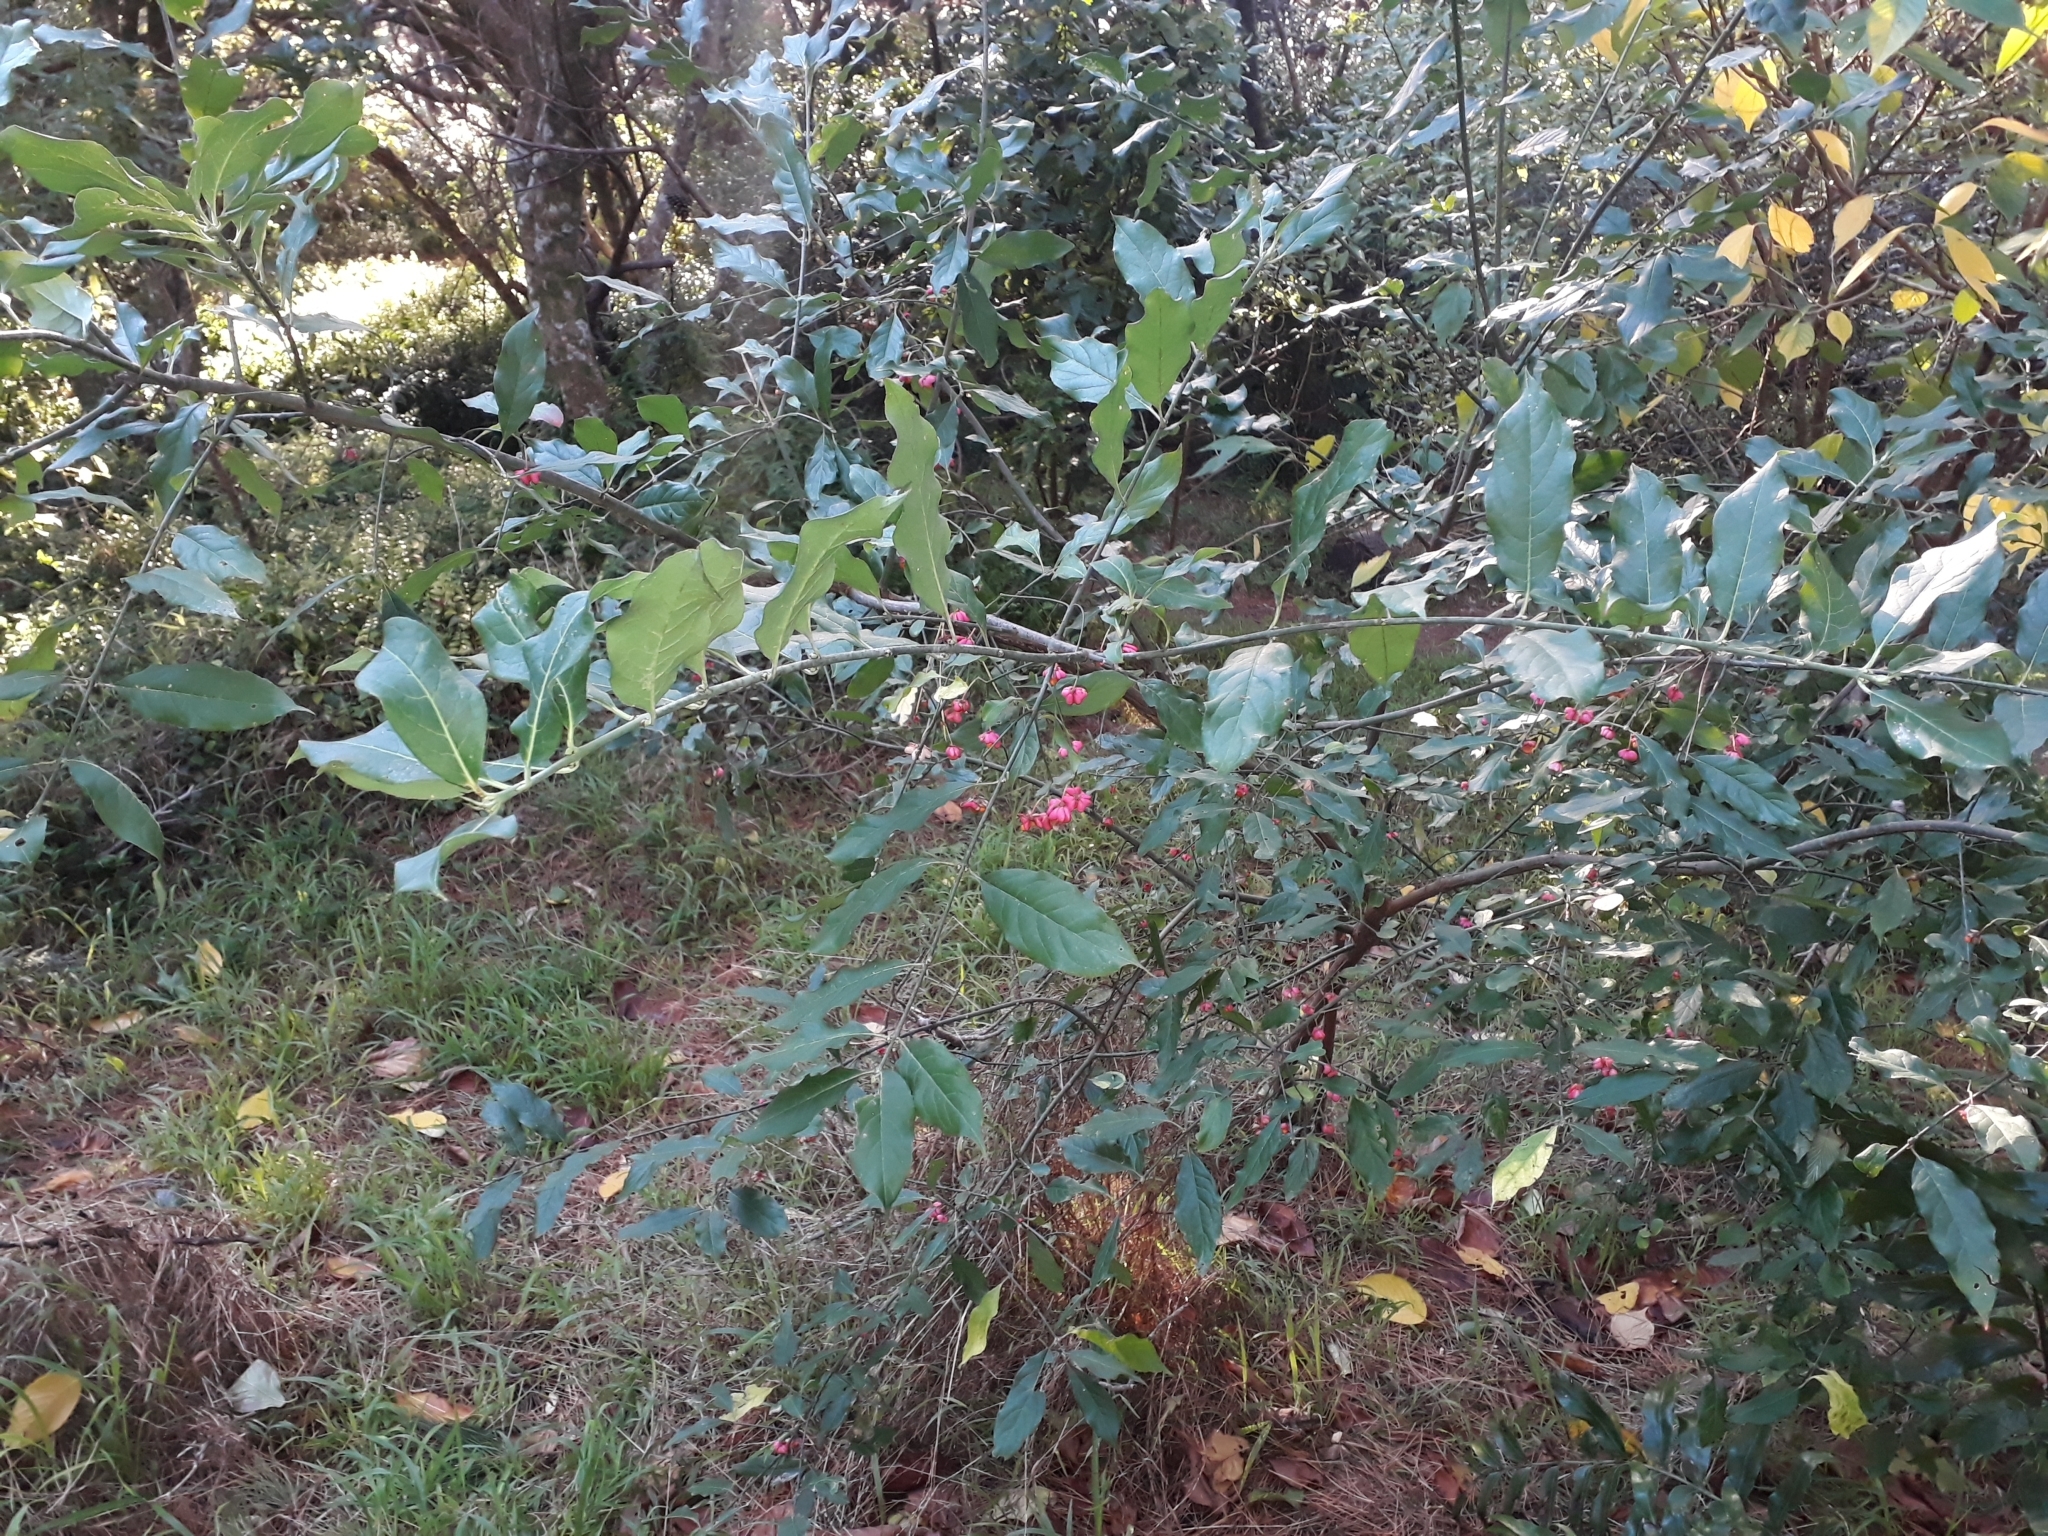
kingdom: Plantae
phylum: Tracheophyta
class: Magnoliopsida
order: Celastrales
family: Celastraceae
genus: Euonymus
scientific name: Euonymus europaeus
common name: Spindle
